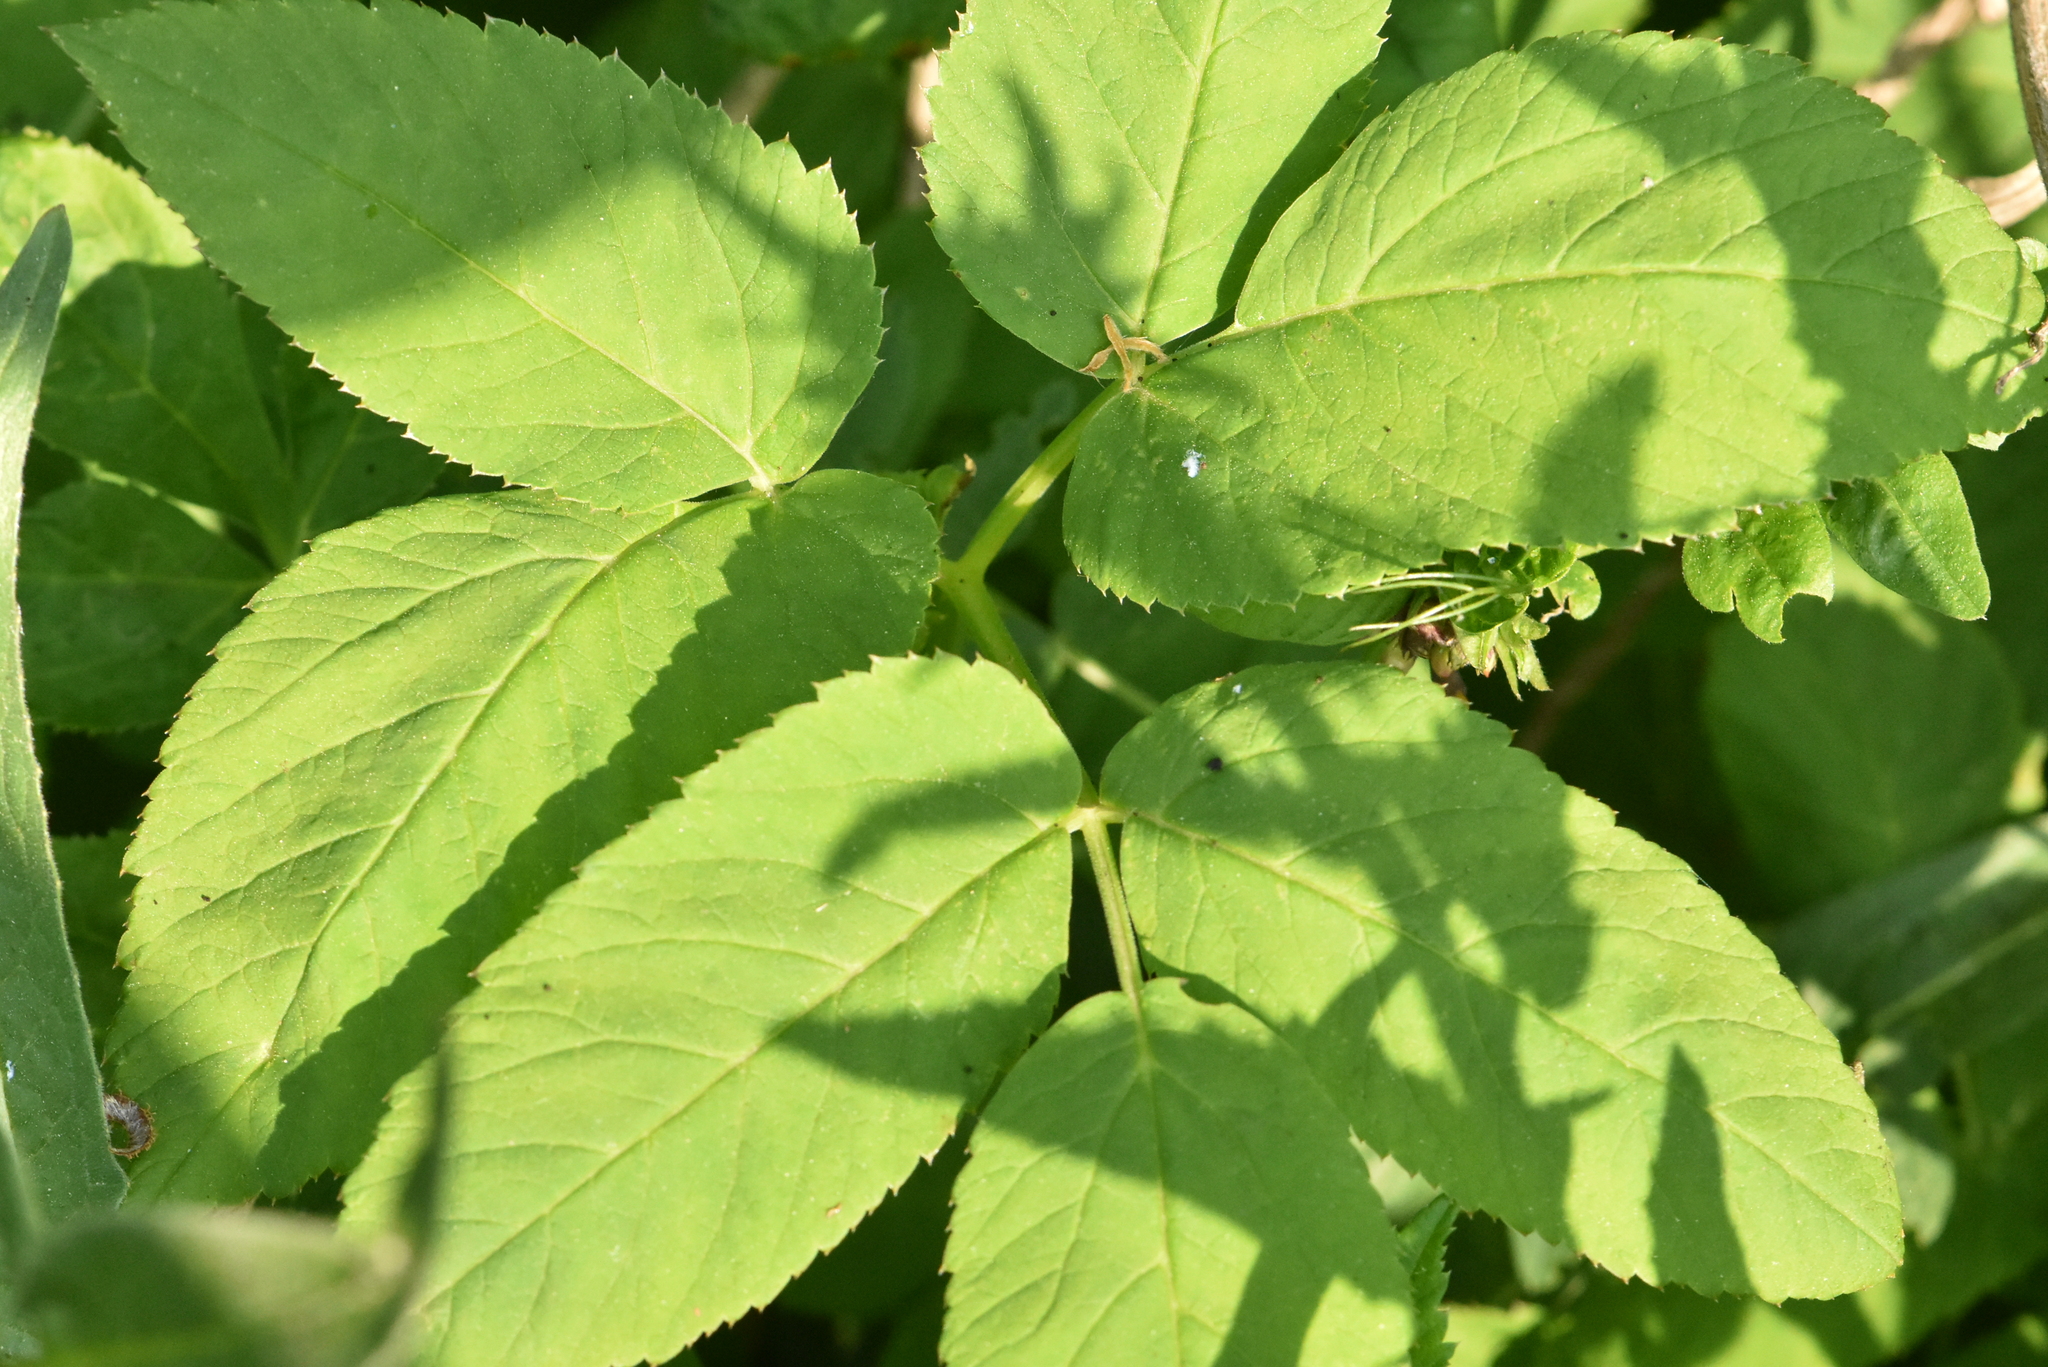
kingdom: Plantae
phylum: Tracheophyta
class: Magnoliopsida
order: Apiales
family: Apiaceae
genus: Aegopodium
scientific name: Aegopodium podagraria
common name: Ground-elder
